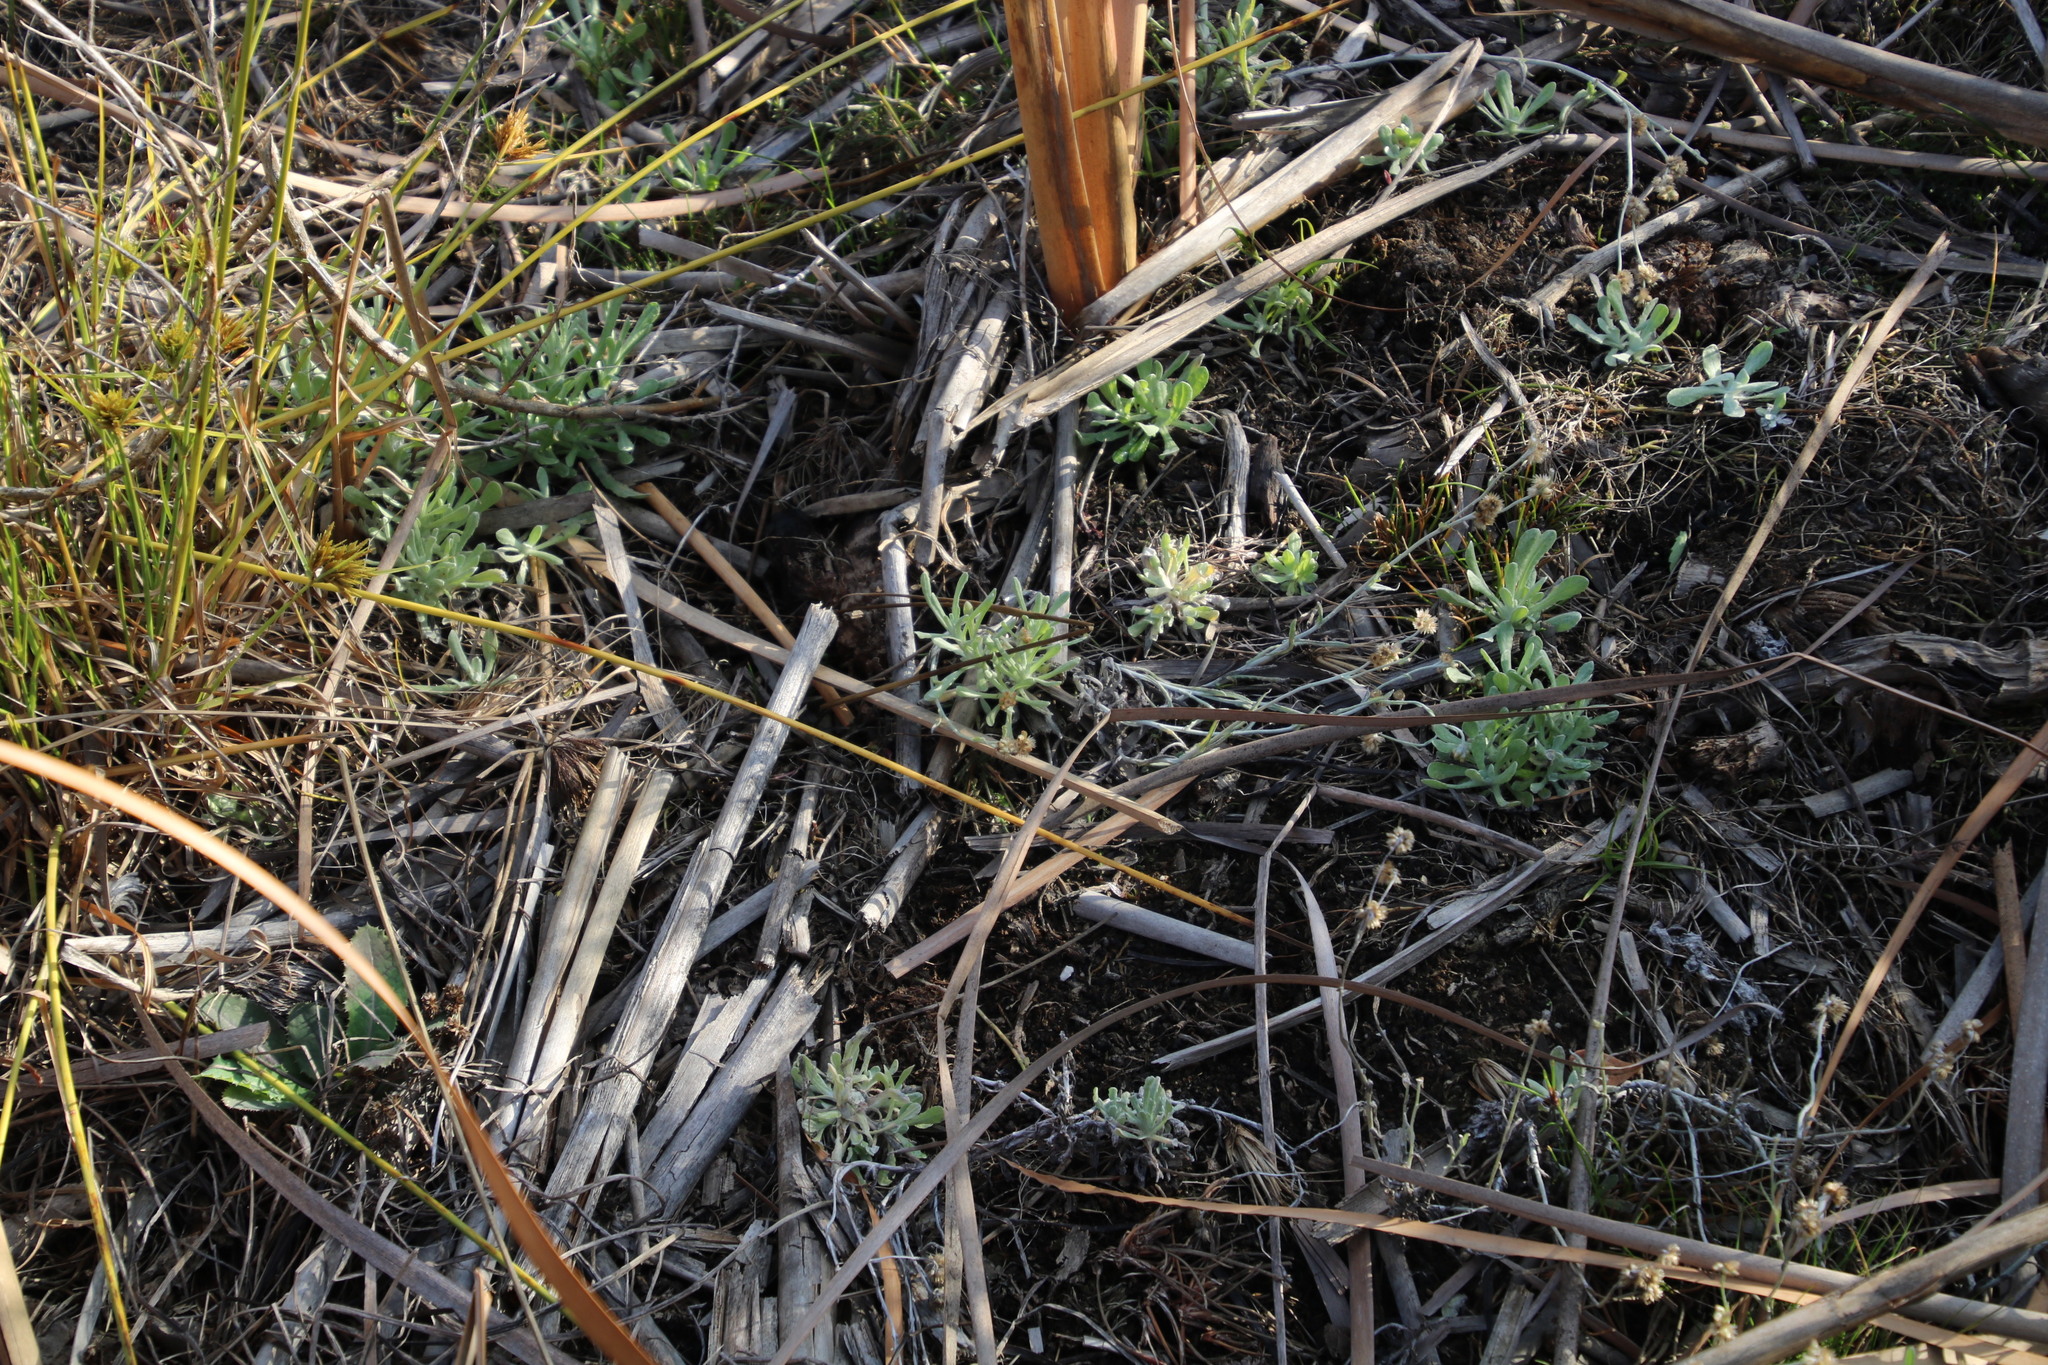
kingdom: Plantae
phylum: Tracheophyta
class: Magnoliopsida
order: Asterales
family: Asteraceae
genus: Helichrysum
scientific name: Helichrysum luteoalbum
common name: Daisy
